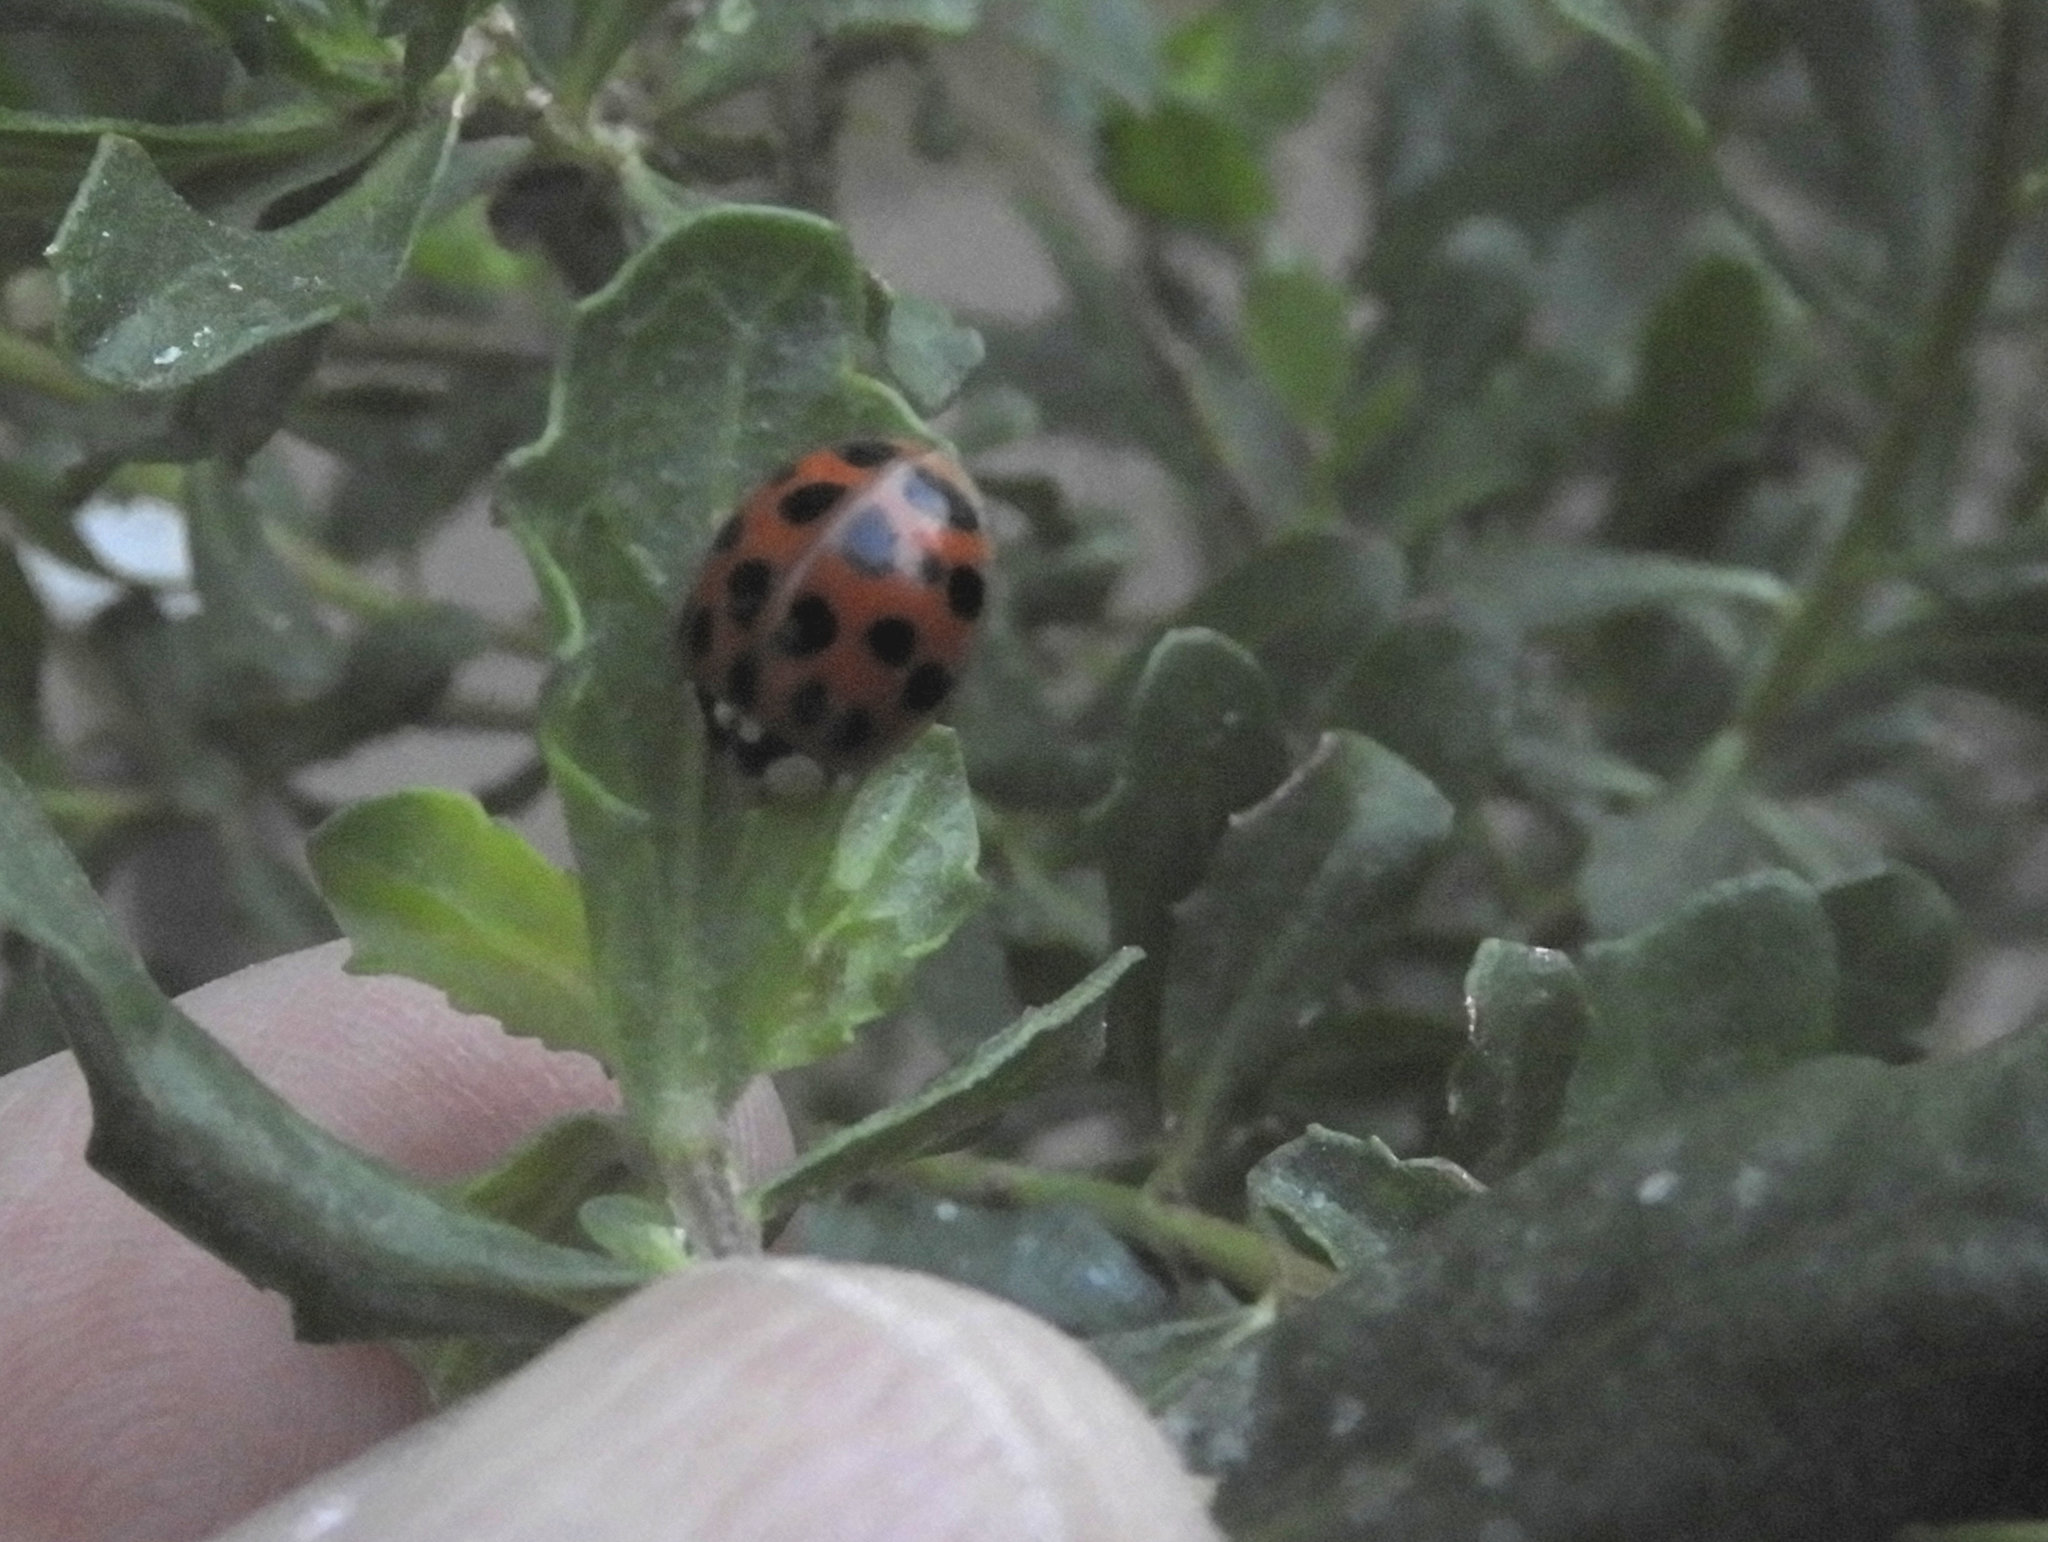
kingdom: Animalia
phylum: Arthropoda
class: Insecta
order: Coleoptera
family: Coccinellidae
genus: Harmonia
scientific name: Harmonia axyridis
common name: Harlequin ladybird
